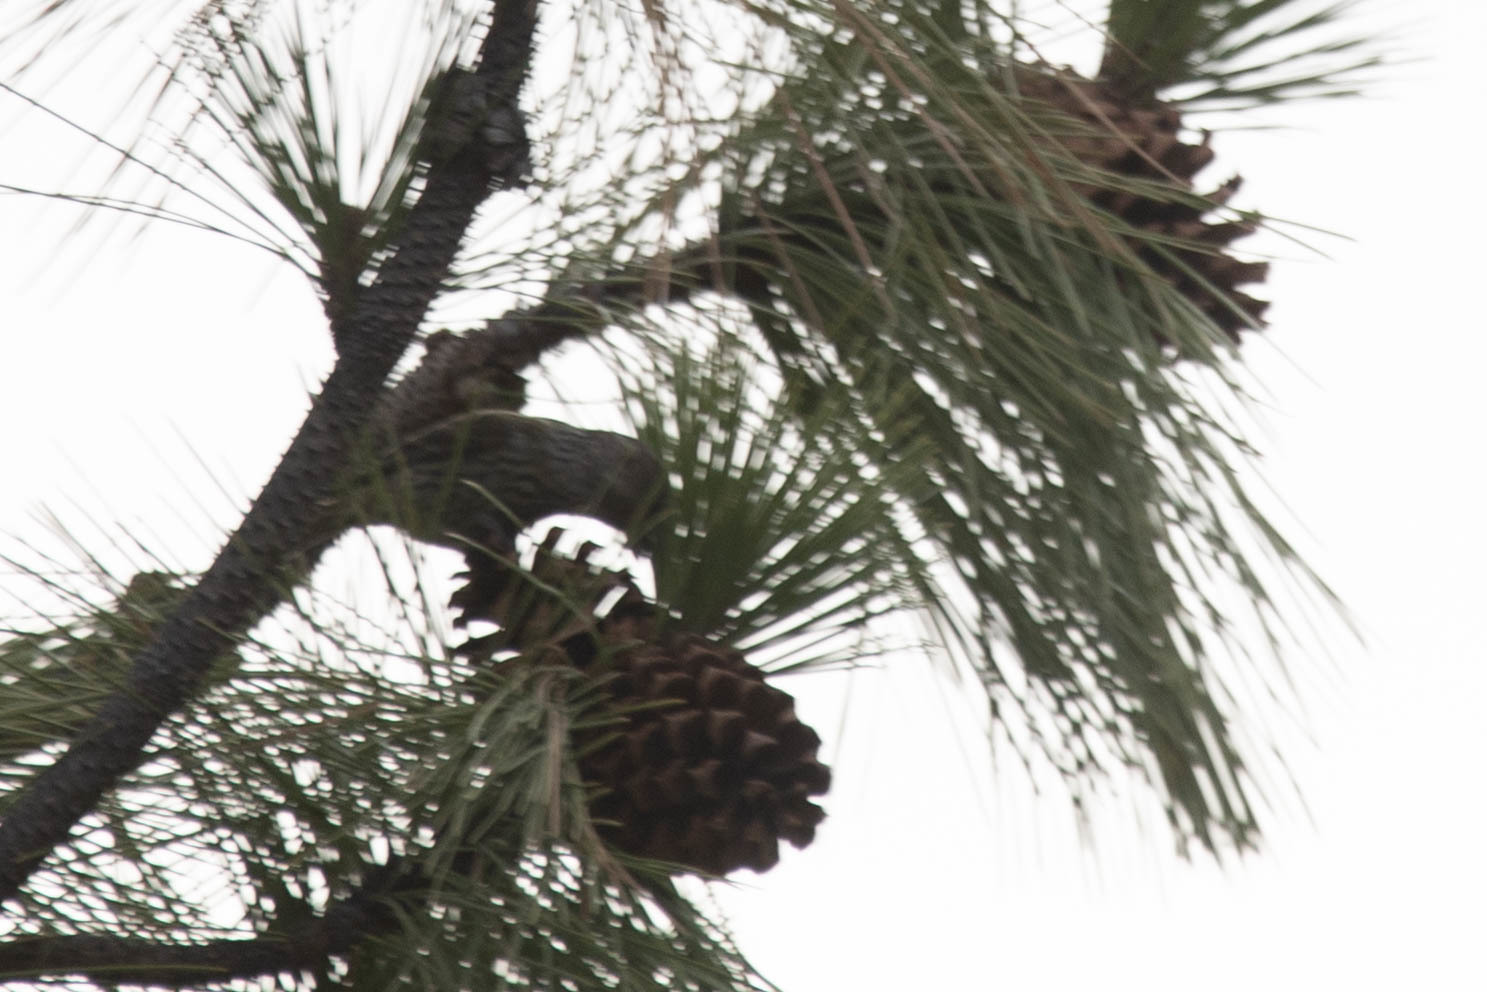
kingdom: Animalia
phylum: Chordata
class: Aves
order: Passeriformes
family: Fringillidae
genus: Loxia
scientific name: Loxia curvirostra
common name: Red crossbill
